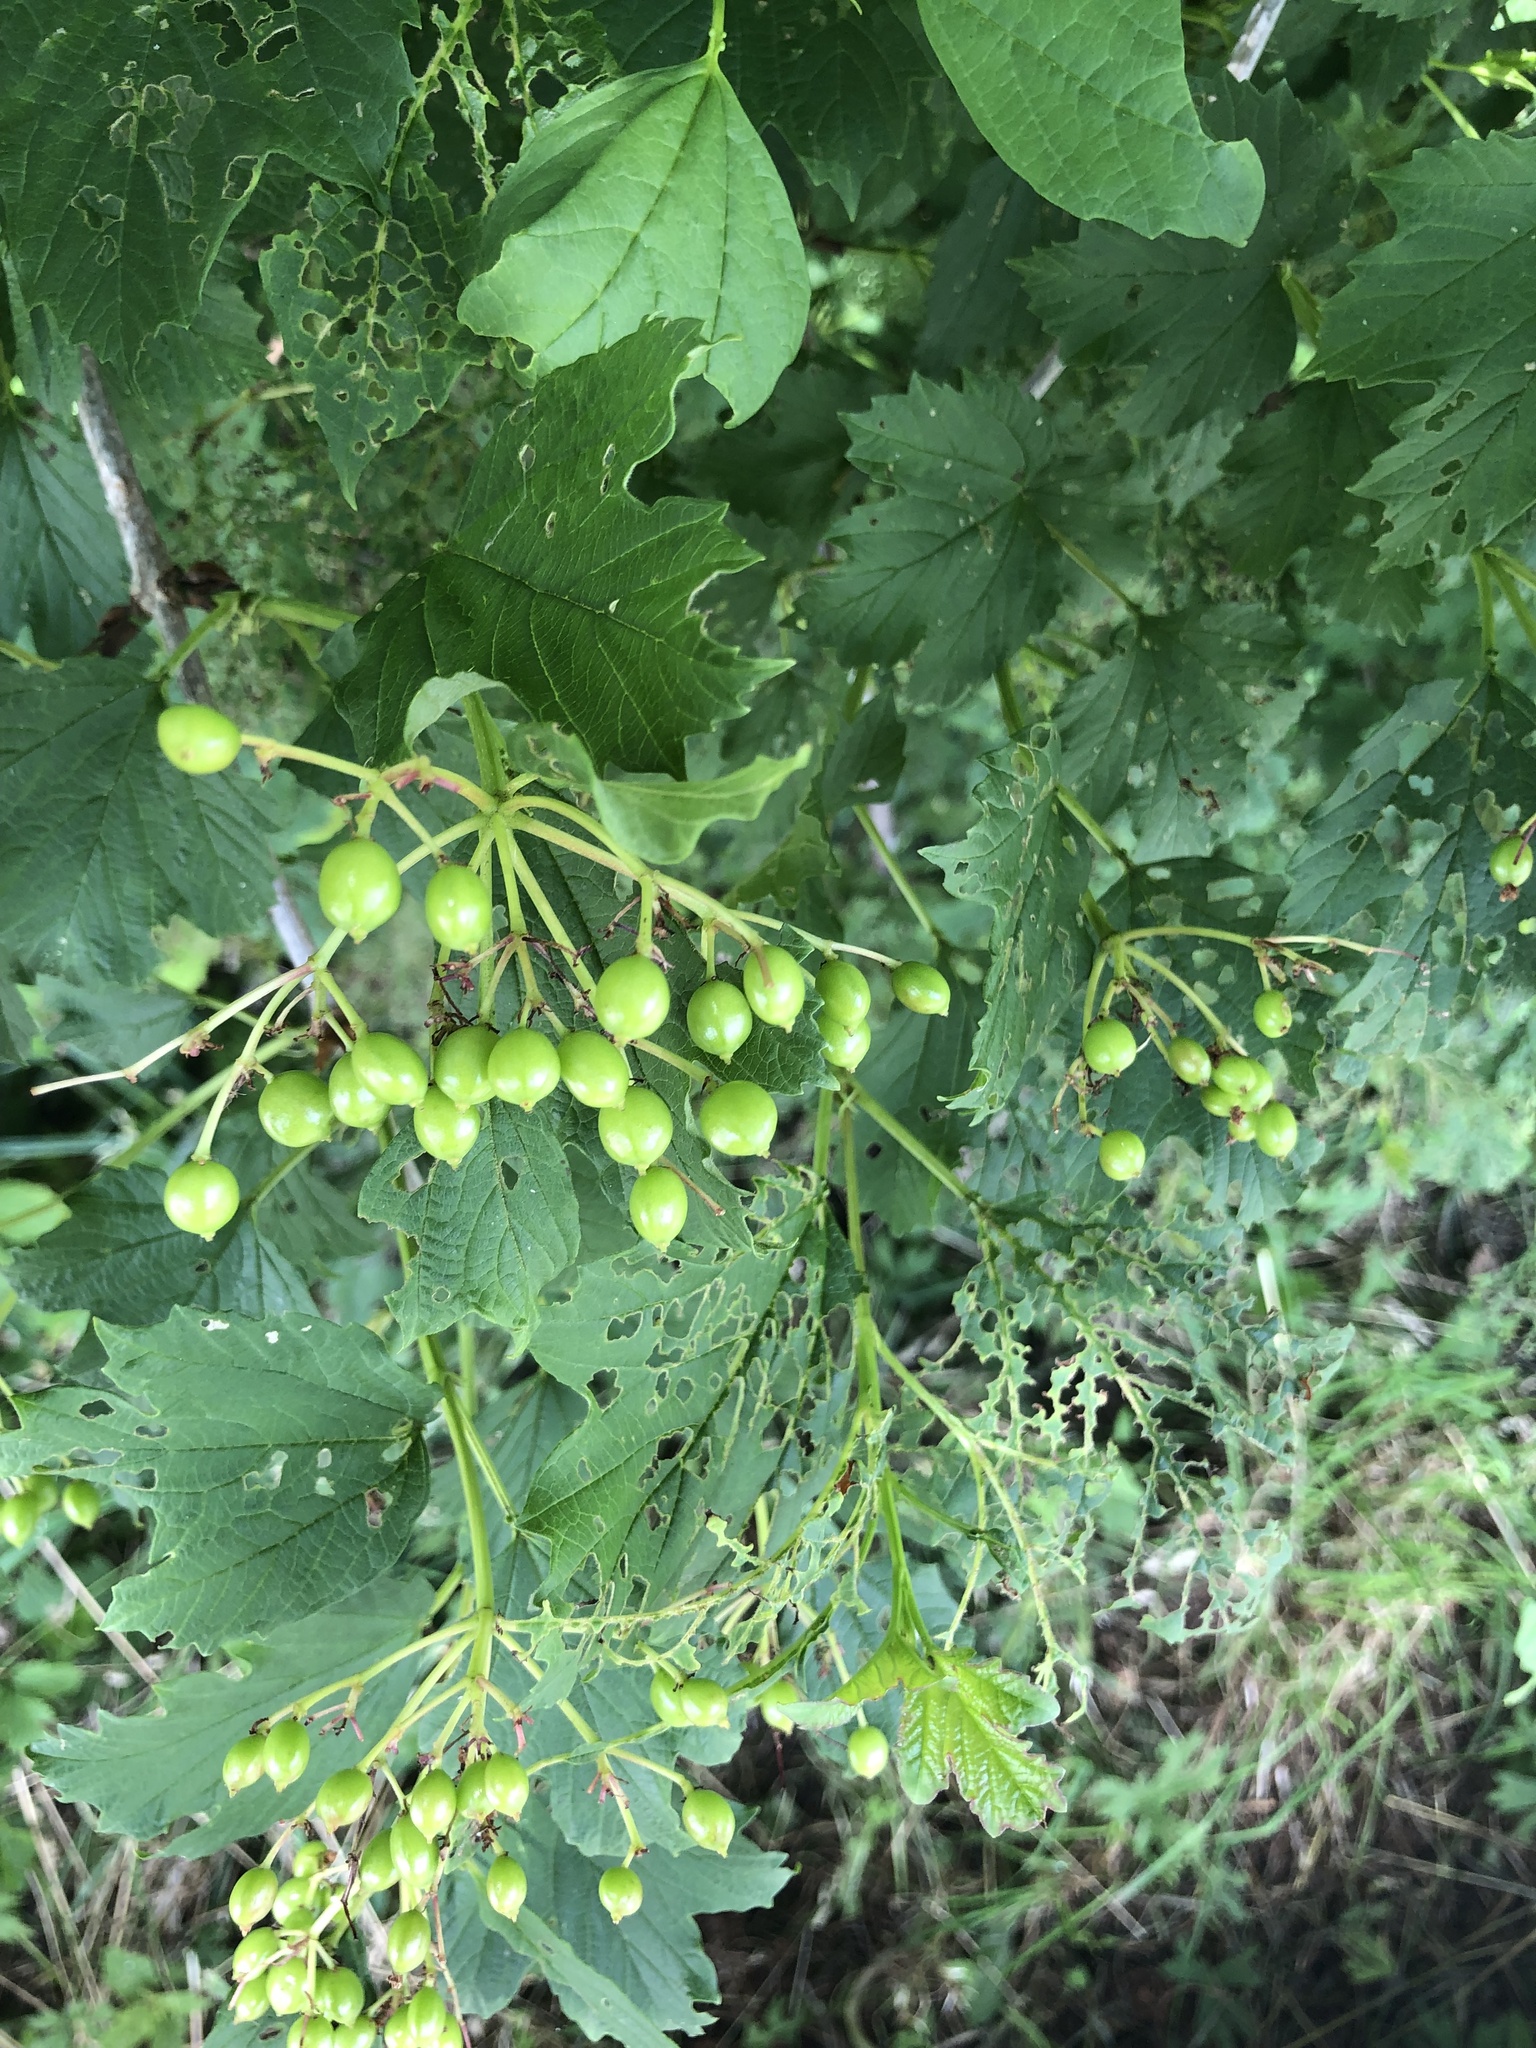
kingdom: Plantae
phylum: Tracheophyta
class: Magnoliopsida
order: Dipsacales
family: Viburnaceae
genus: Viburnum
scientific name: Viburnum opulus
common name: Guelder-rose
